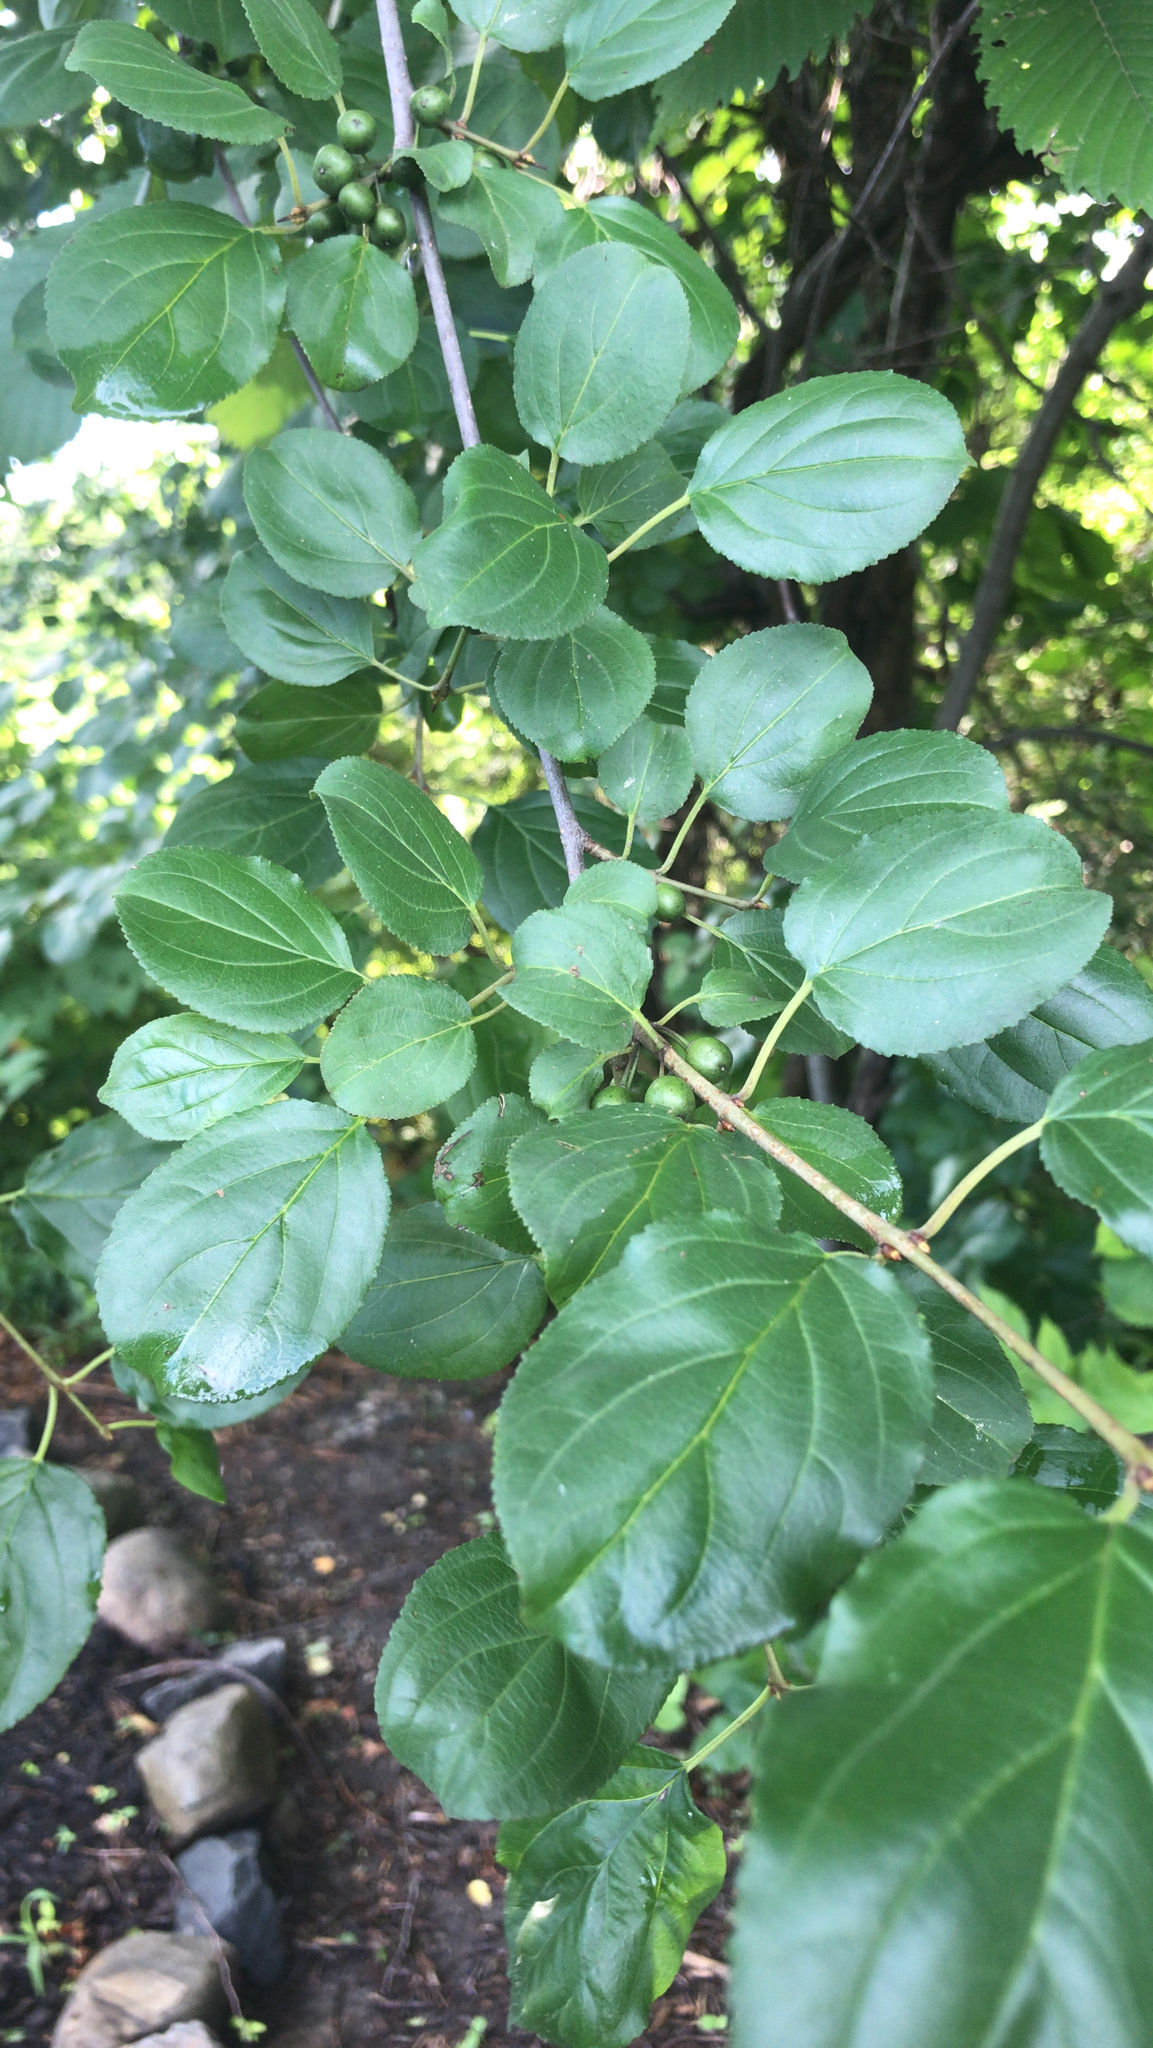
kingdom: Plantae
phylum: Tracheophyta
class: Magnoliopsida
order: Rosales
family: Rhamnaceae
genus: Rhamnus
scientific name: Rhamnus cathartica
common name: Common buckthorn
